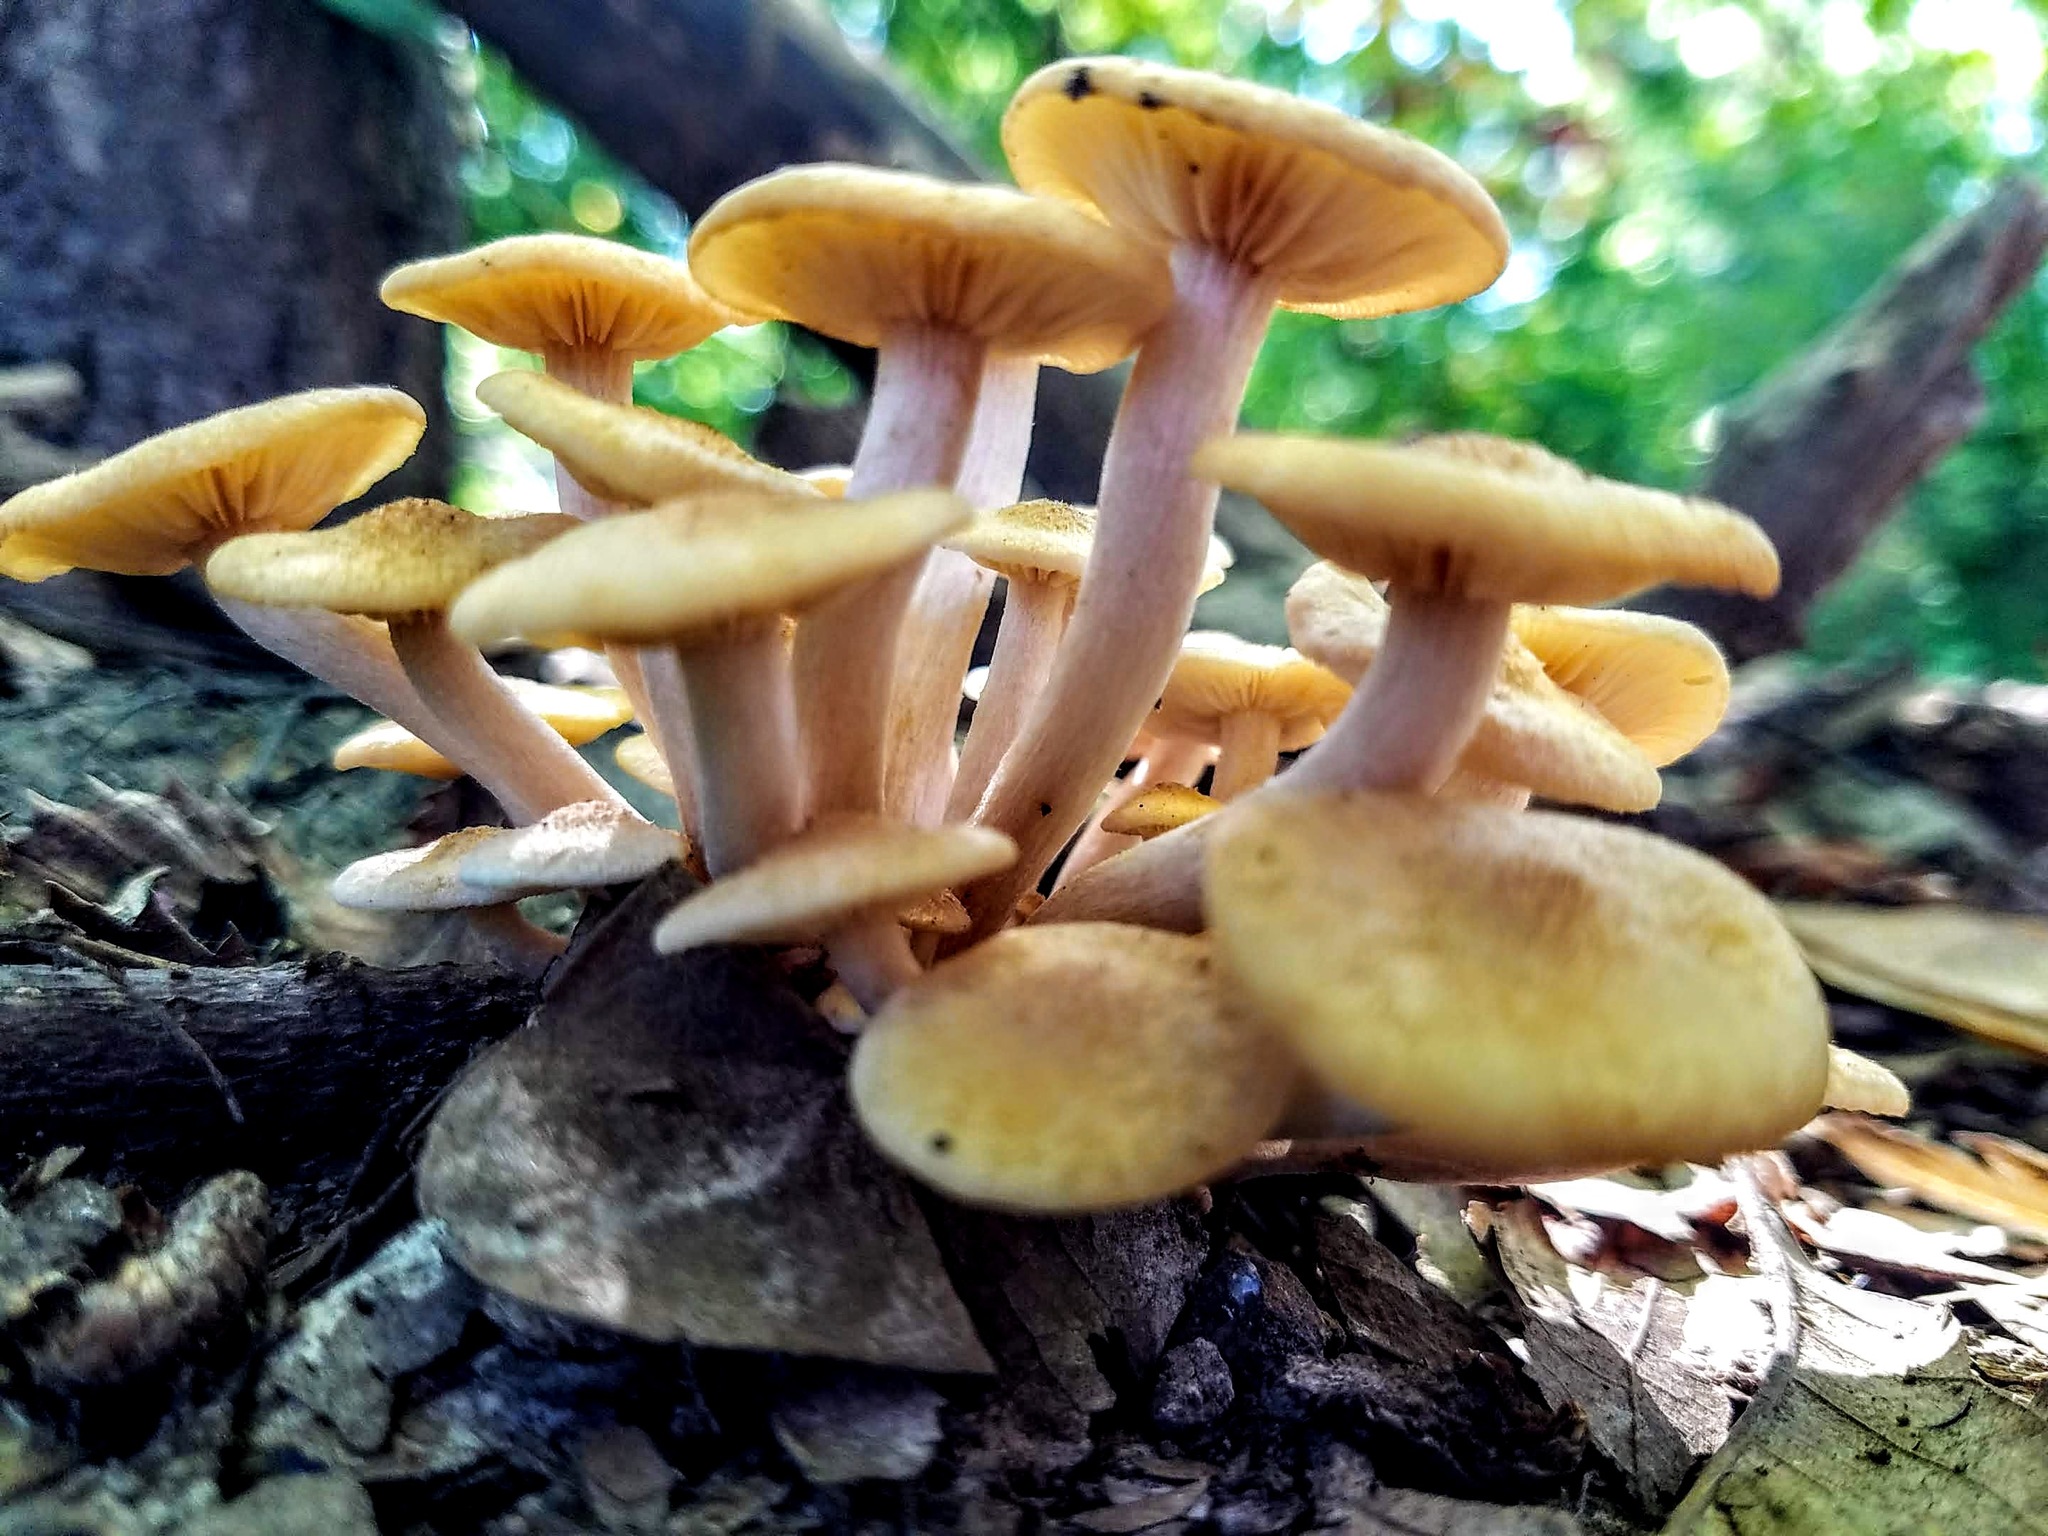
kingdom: Fungi
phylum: Basidiomycota
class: Agaricomycetes
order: Agaricales
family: Physalacriaceae
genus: Desarmillaria
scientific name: Desarmillaria caespitosa
